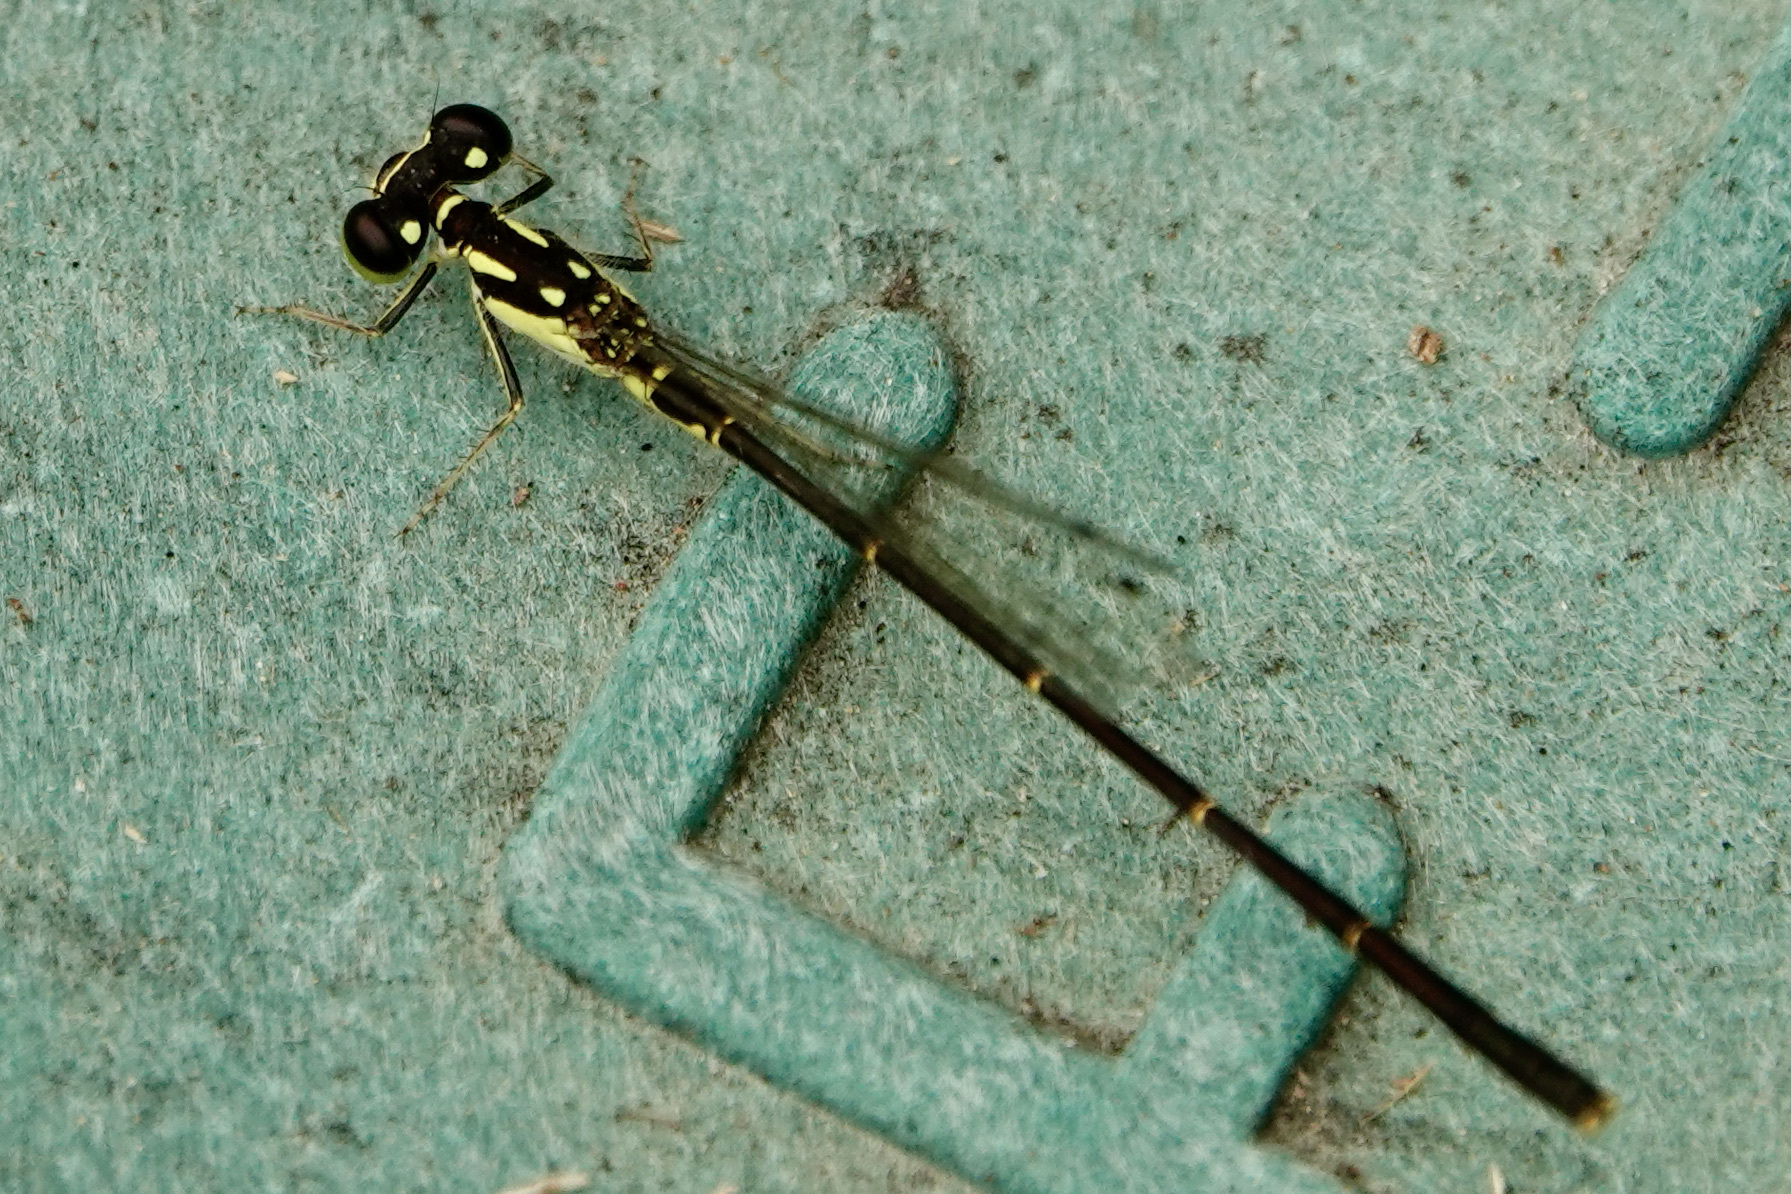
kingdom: Animalia
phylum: Arthropoda
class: Insecta
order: Odonata
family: Coenagrionidae
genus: Ischnura
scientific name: Ischnura posita
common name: Fragile forktail
